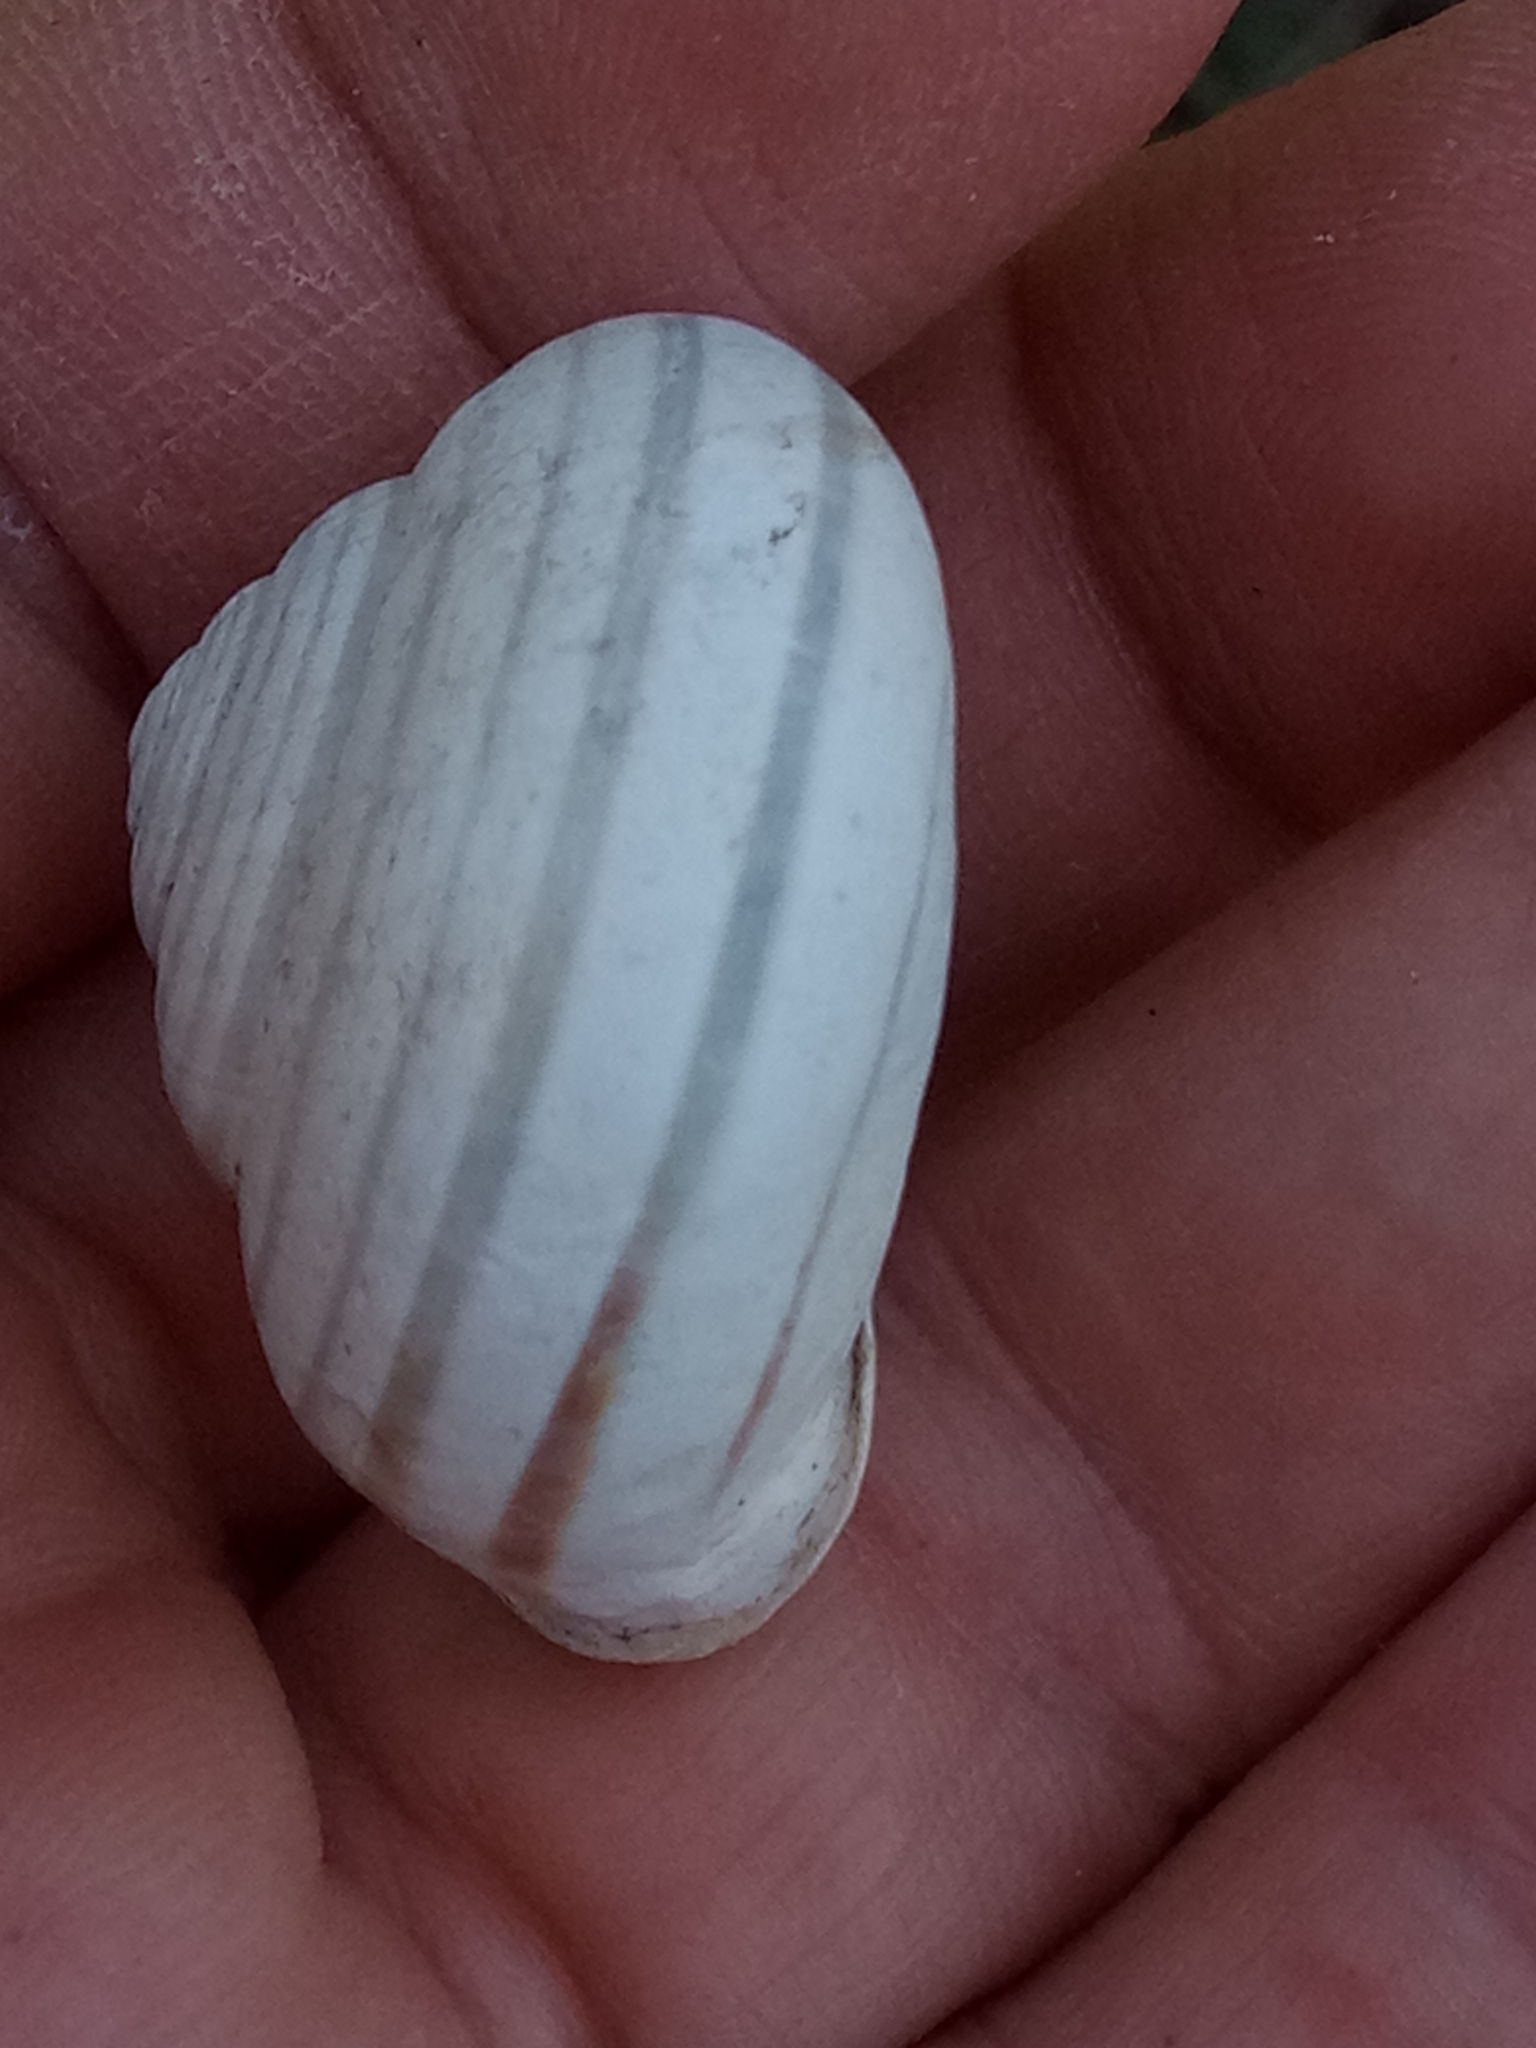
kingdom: Animalia
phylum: Mollusca
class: Gastropoda
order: Stylommatophora
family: Helicidae
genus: Eobania
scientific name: Eobania constantina
